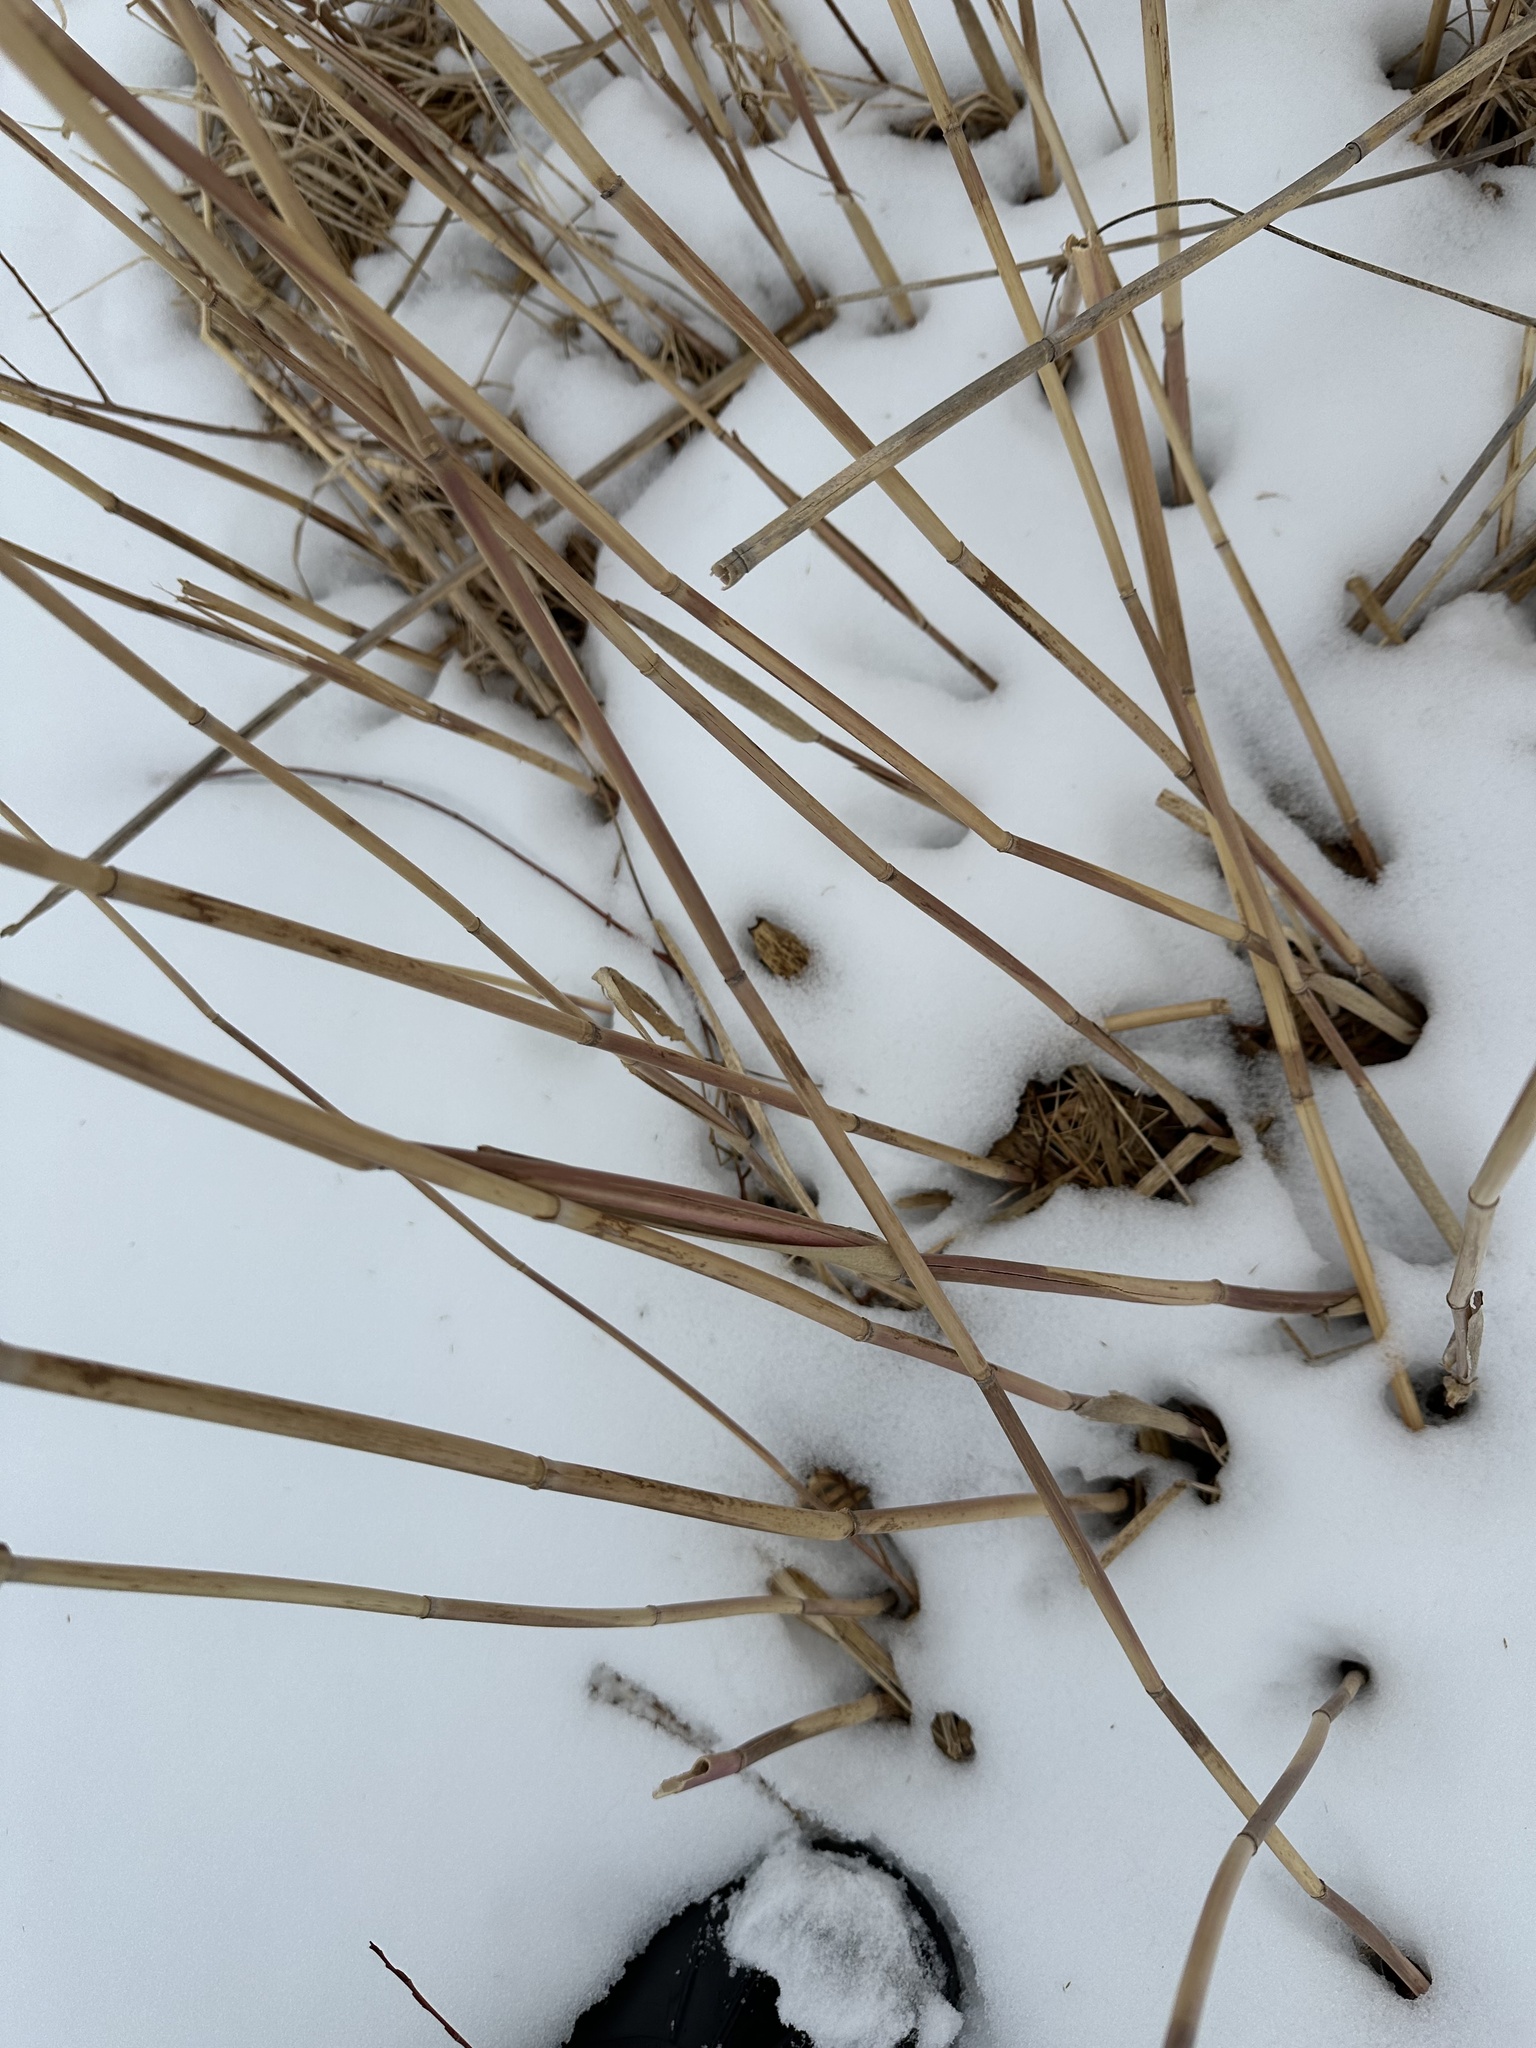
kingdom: Plantae
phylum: Tracheophyta
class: Liliopsida
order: Poales
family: Poaceae
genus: Phragmites
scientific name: Phragmites australis
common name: Common reed
